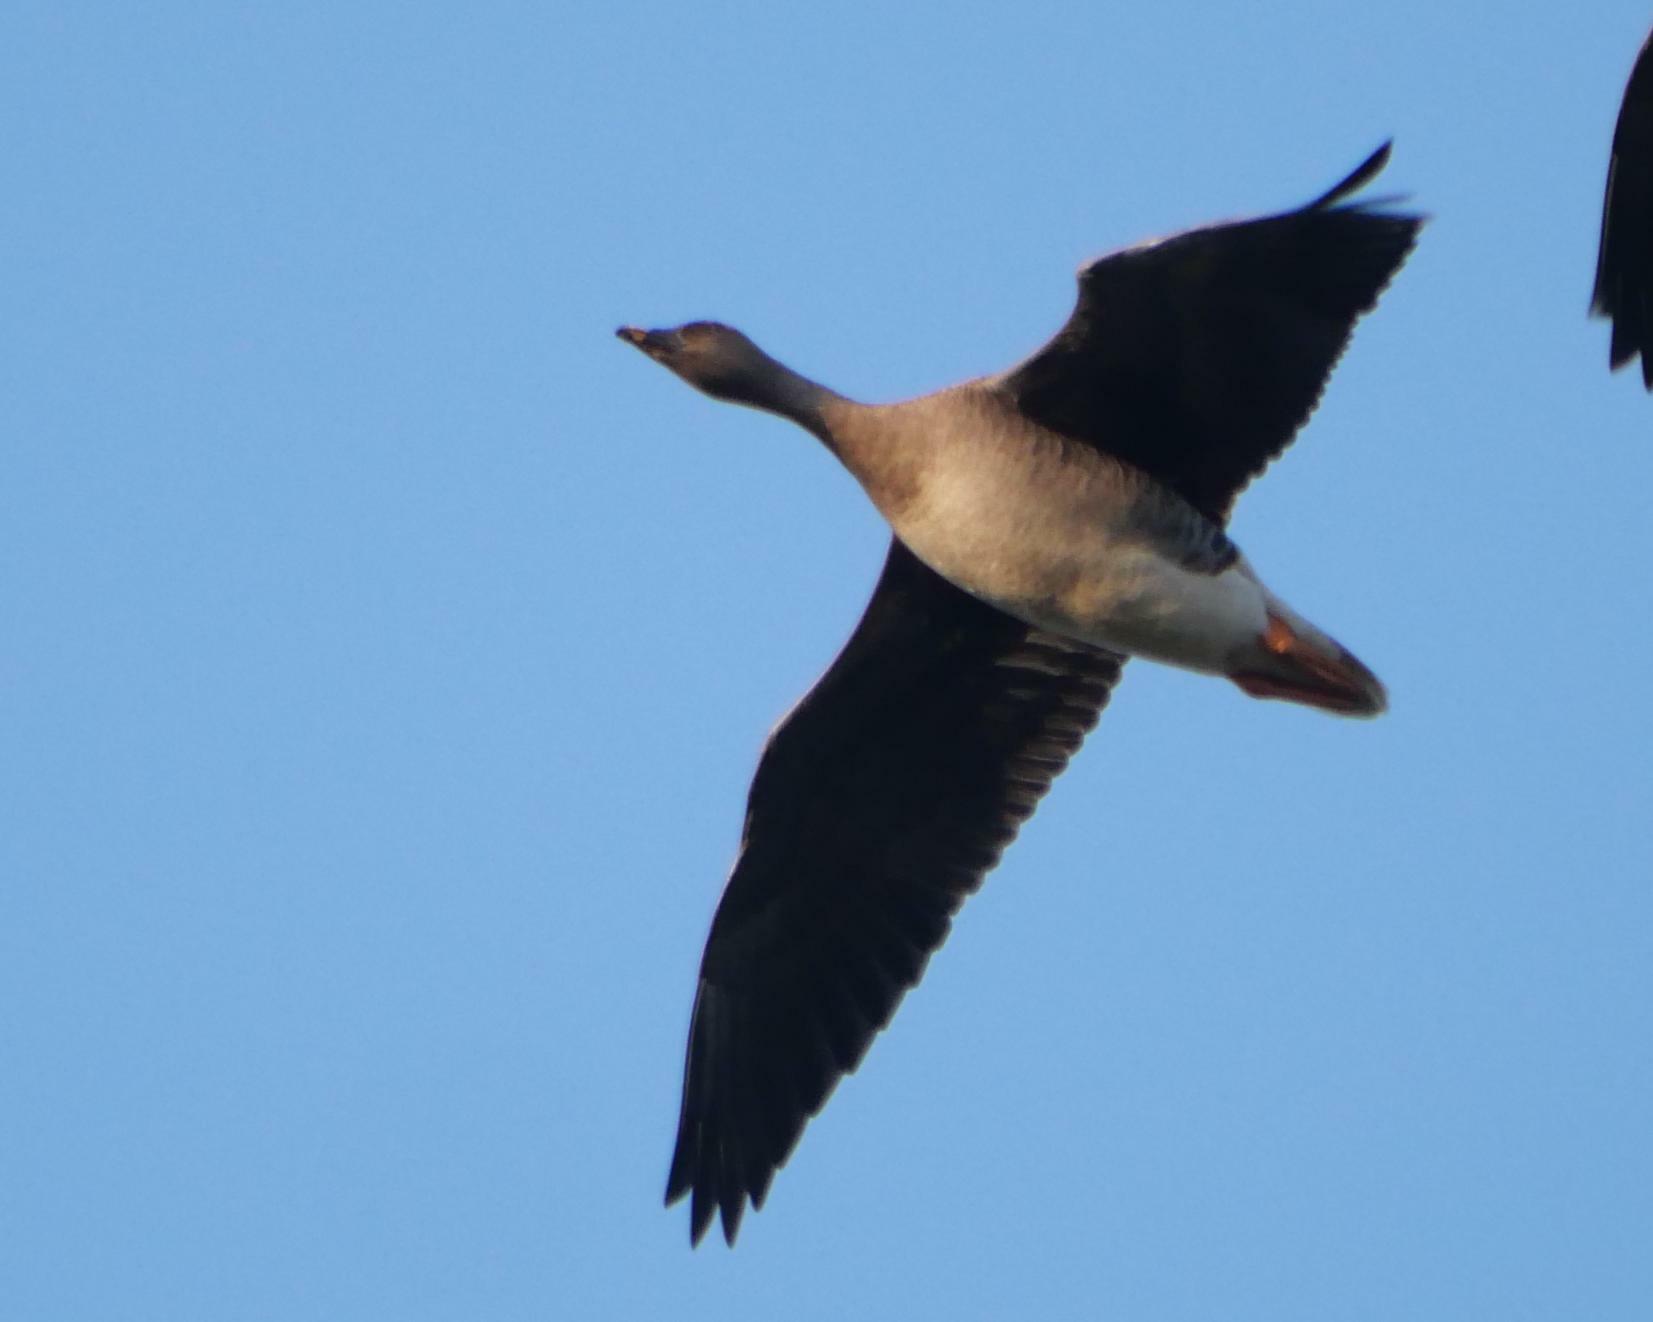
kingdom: Animalia
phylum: Chordata
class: Aves
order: Anseriformes
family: Anatidae
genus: Anser
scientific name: Anser serrirostris
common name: Tundra bean goose
